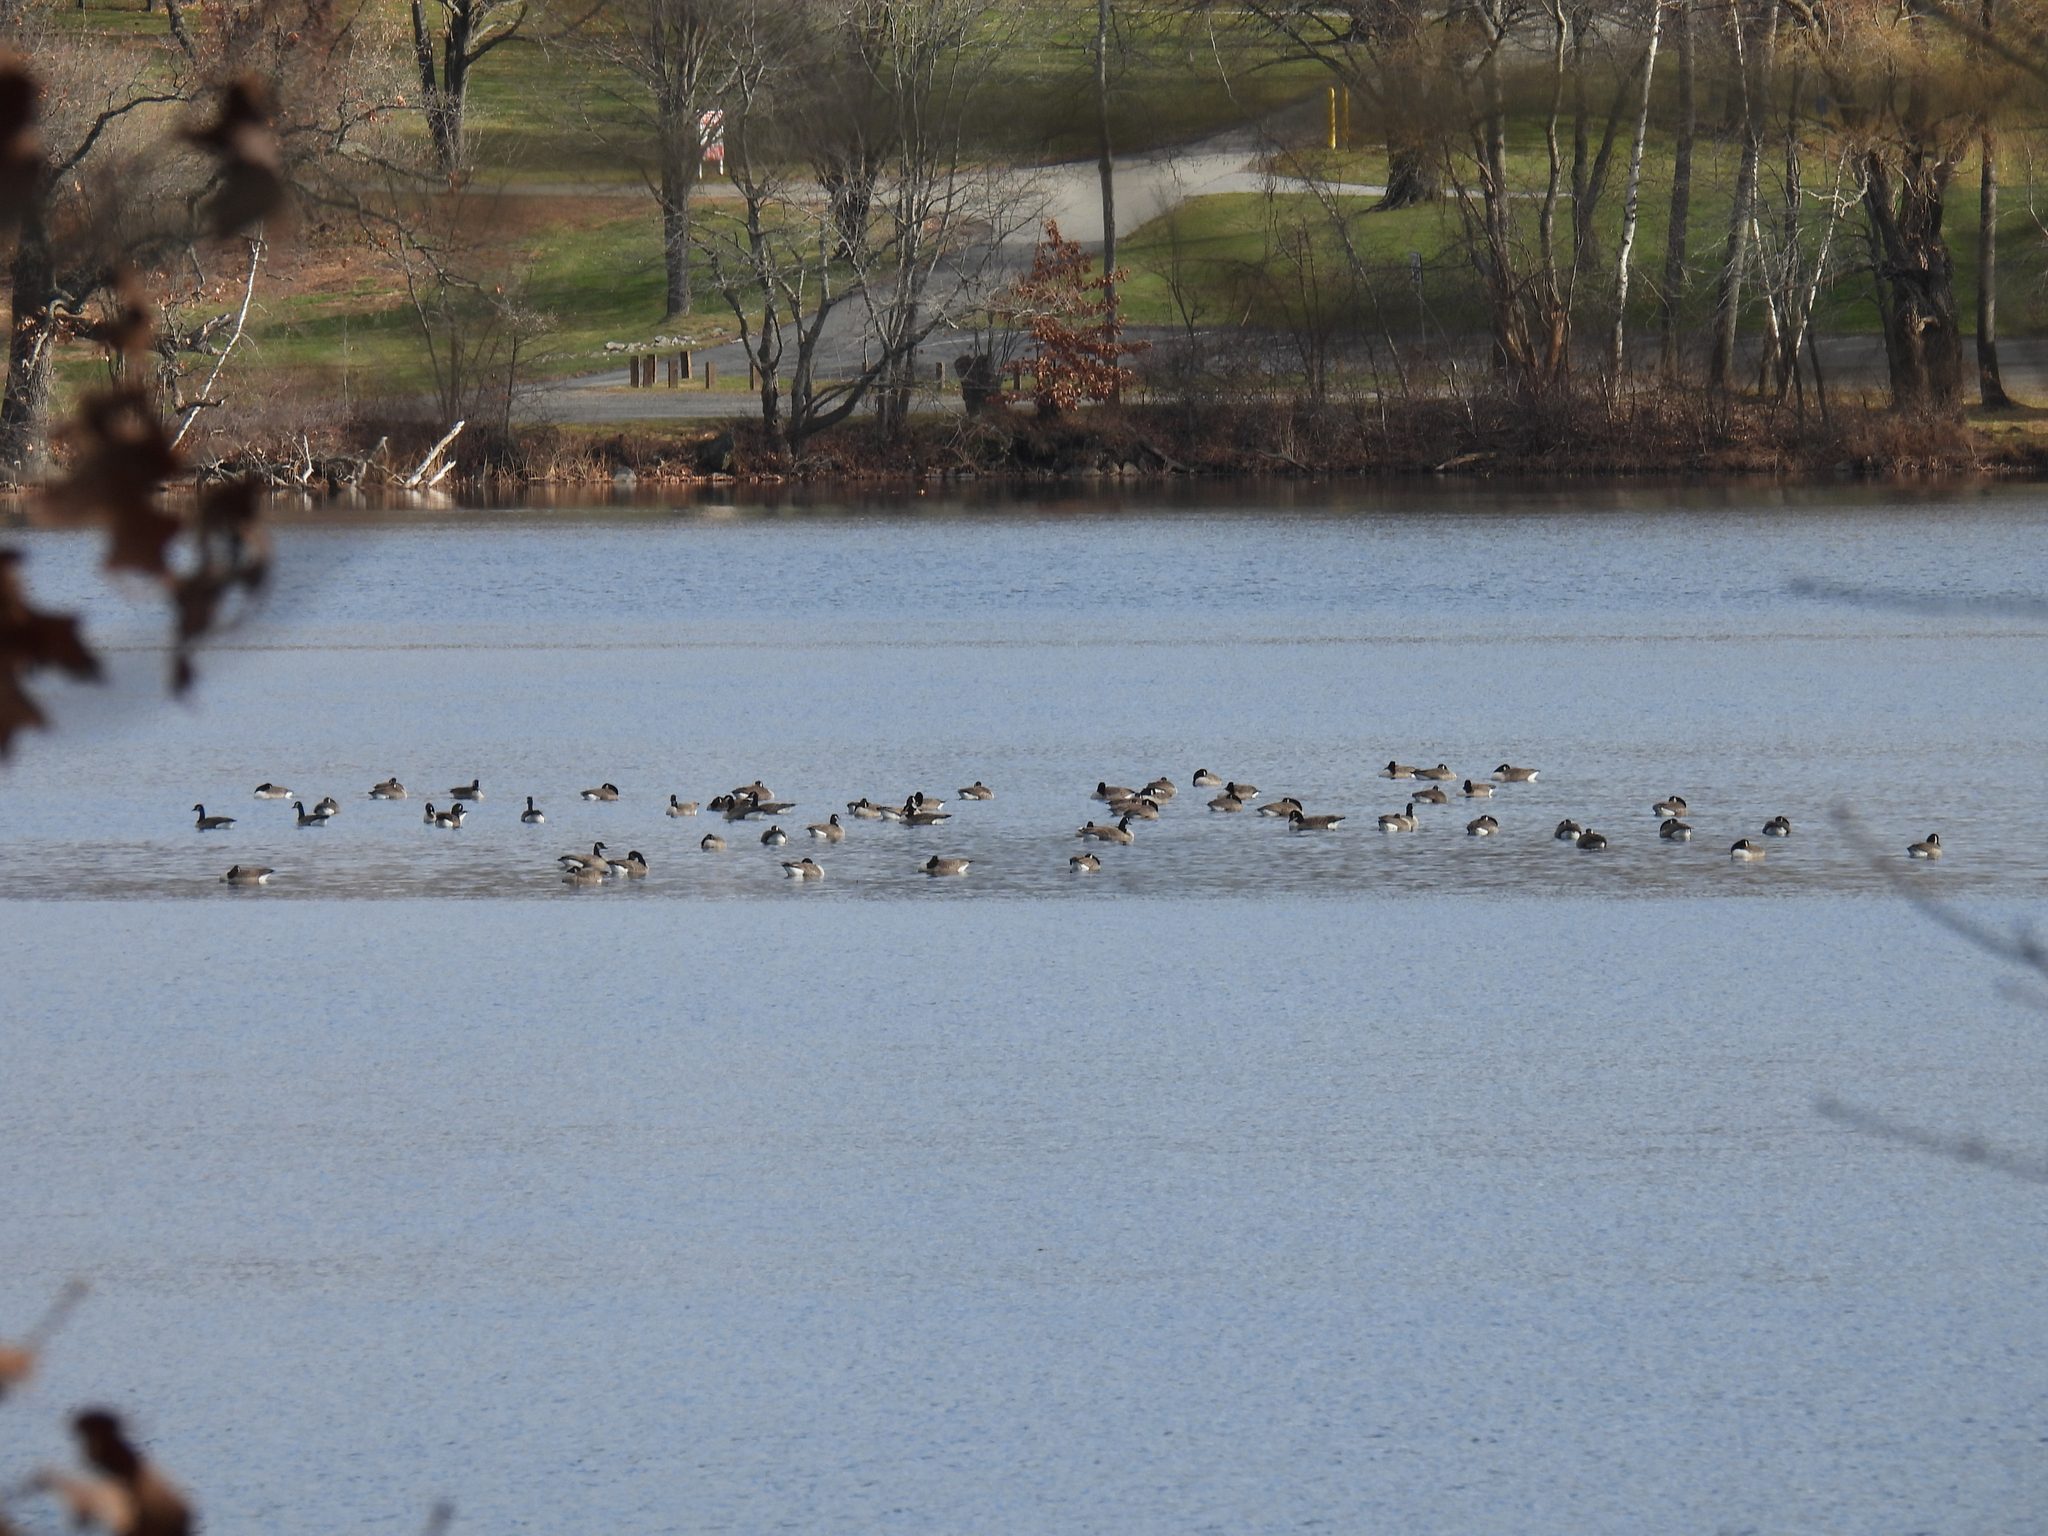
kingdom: Animalia
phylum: Chordata
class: Aves
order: Anseriformes
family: Anatidae
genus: Branta
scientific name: Branta canadensis
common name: Canada goose
